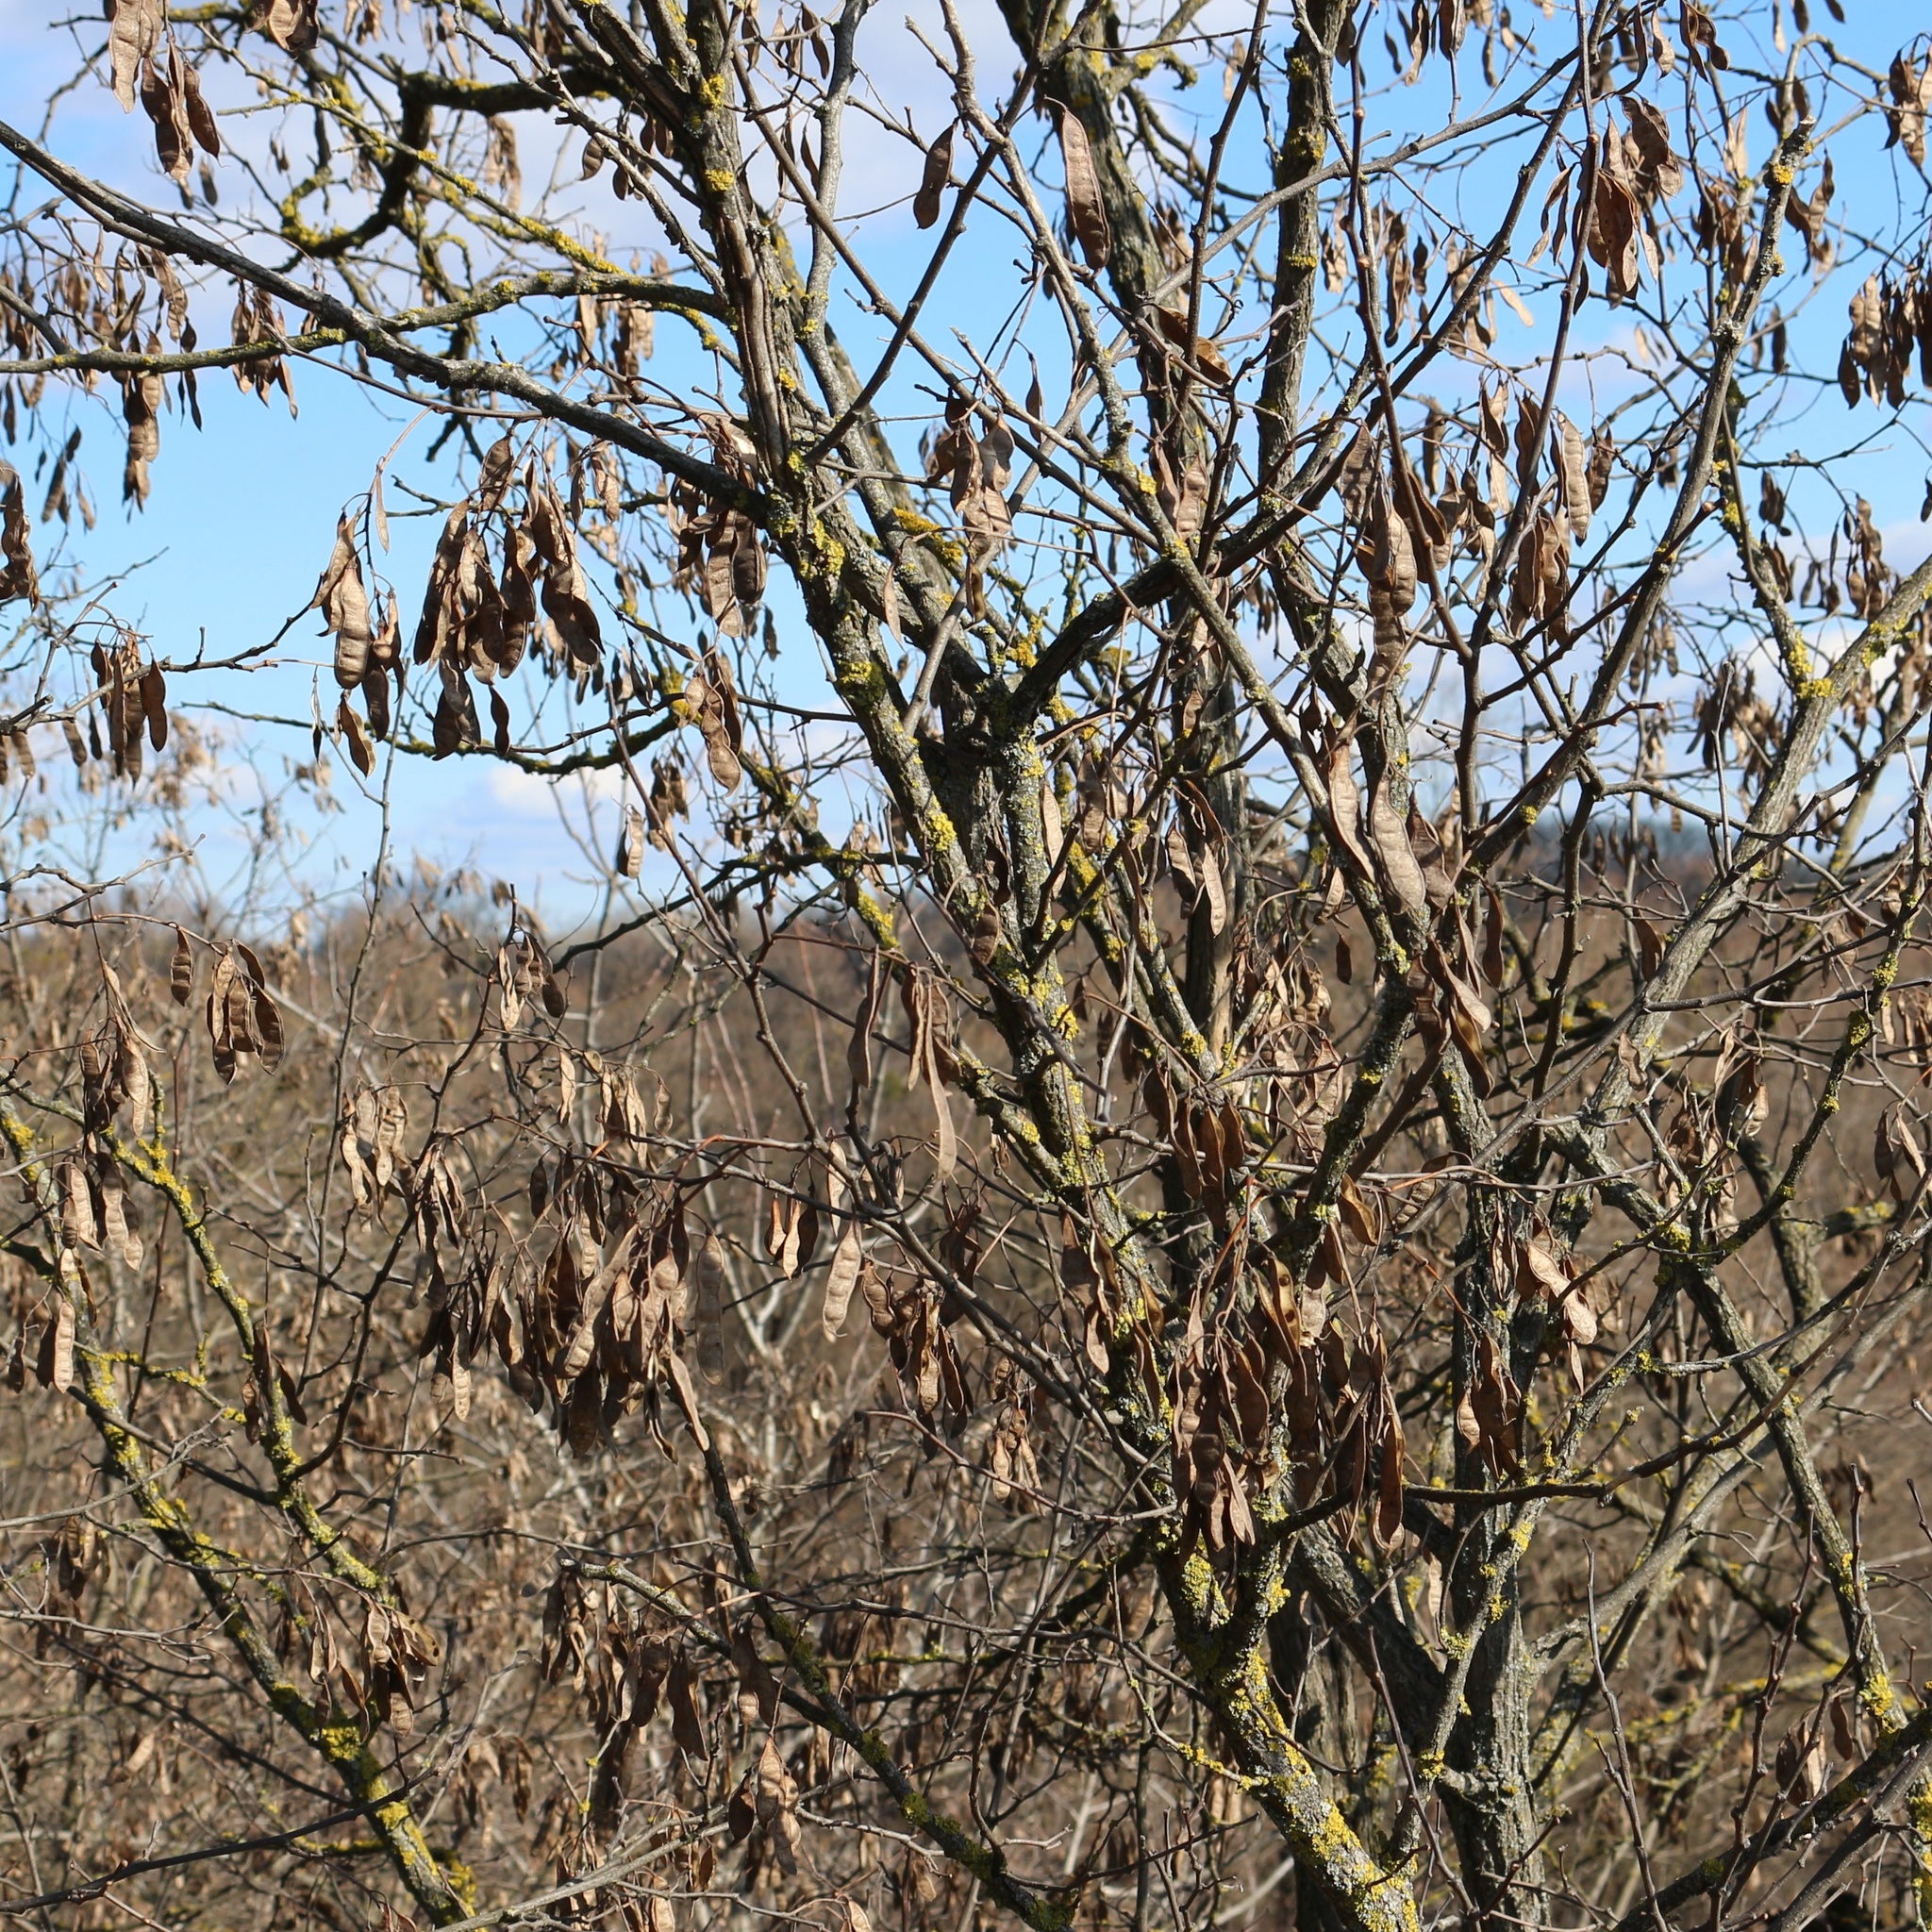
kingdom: Plantae
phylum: Tracheophyta
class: Magnoliopsida
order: Fabales
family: Fabaceae
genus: Robinia
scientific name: Robinia pseudoacacia
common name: Black locust
